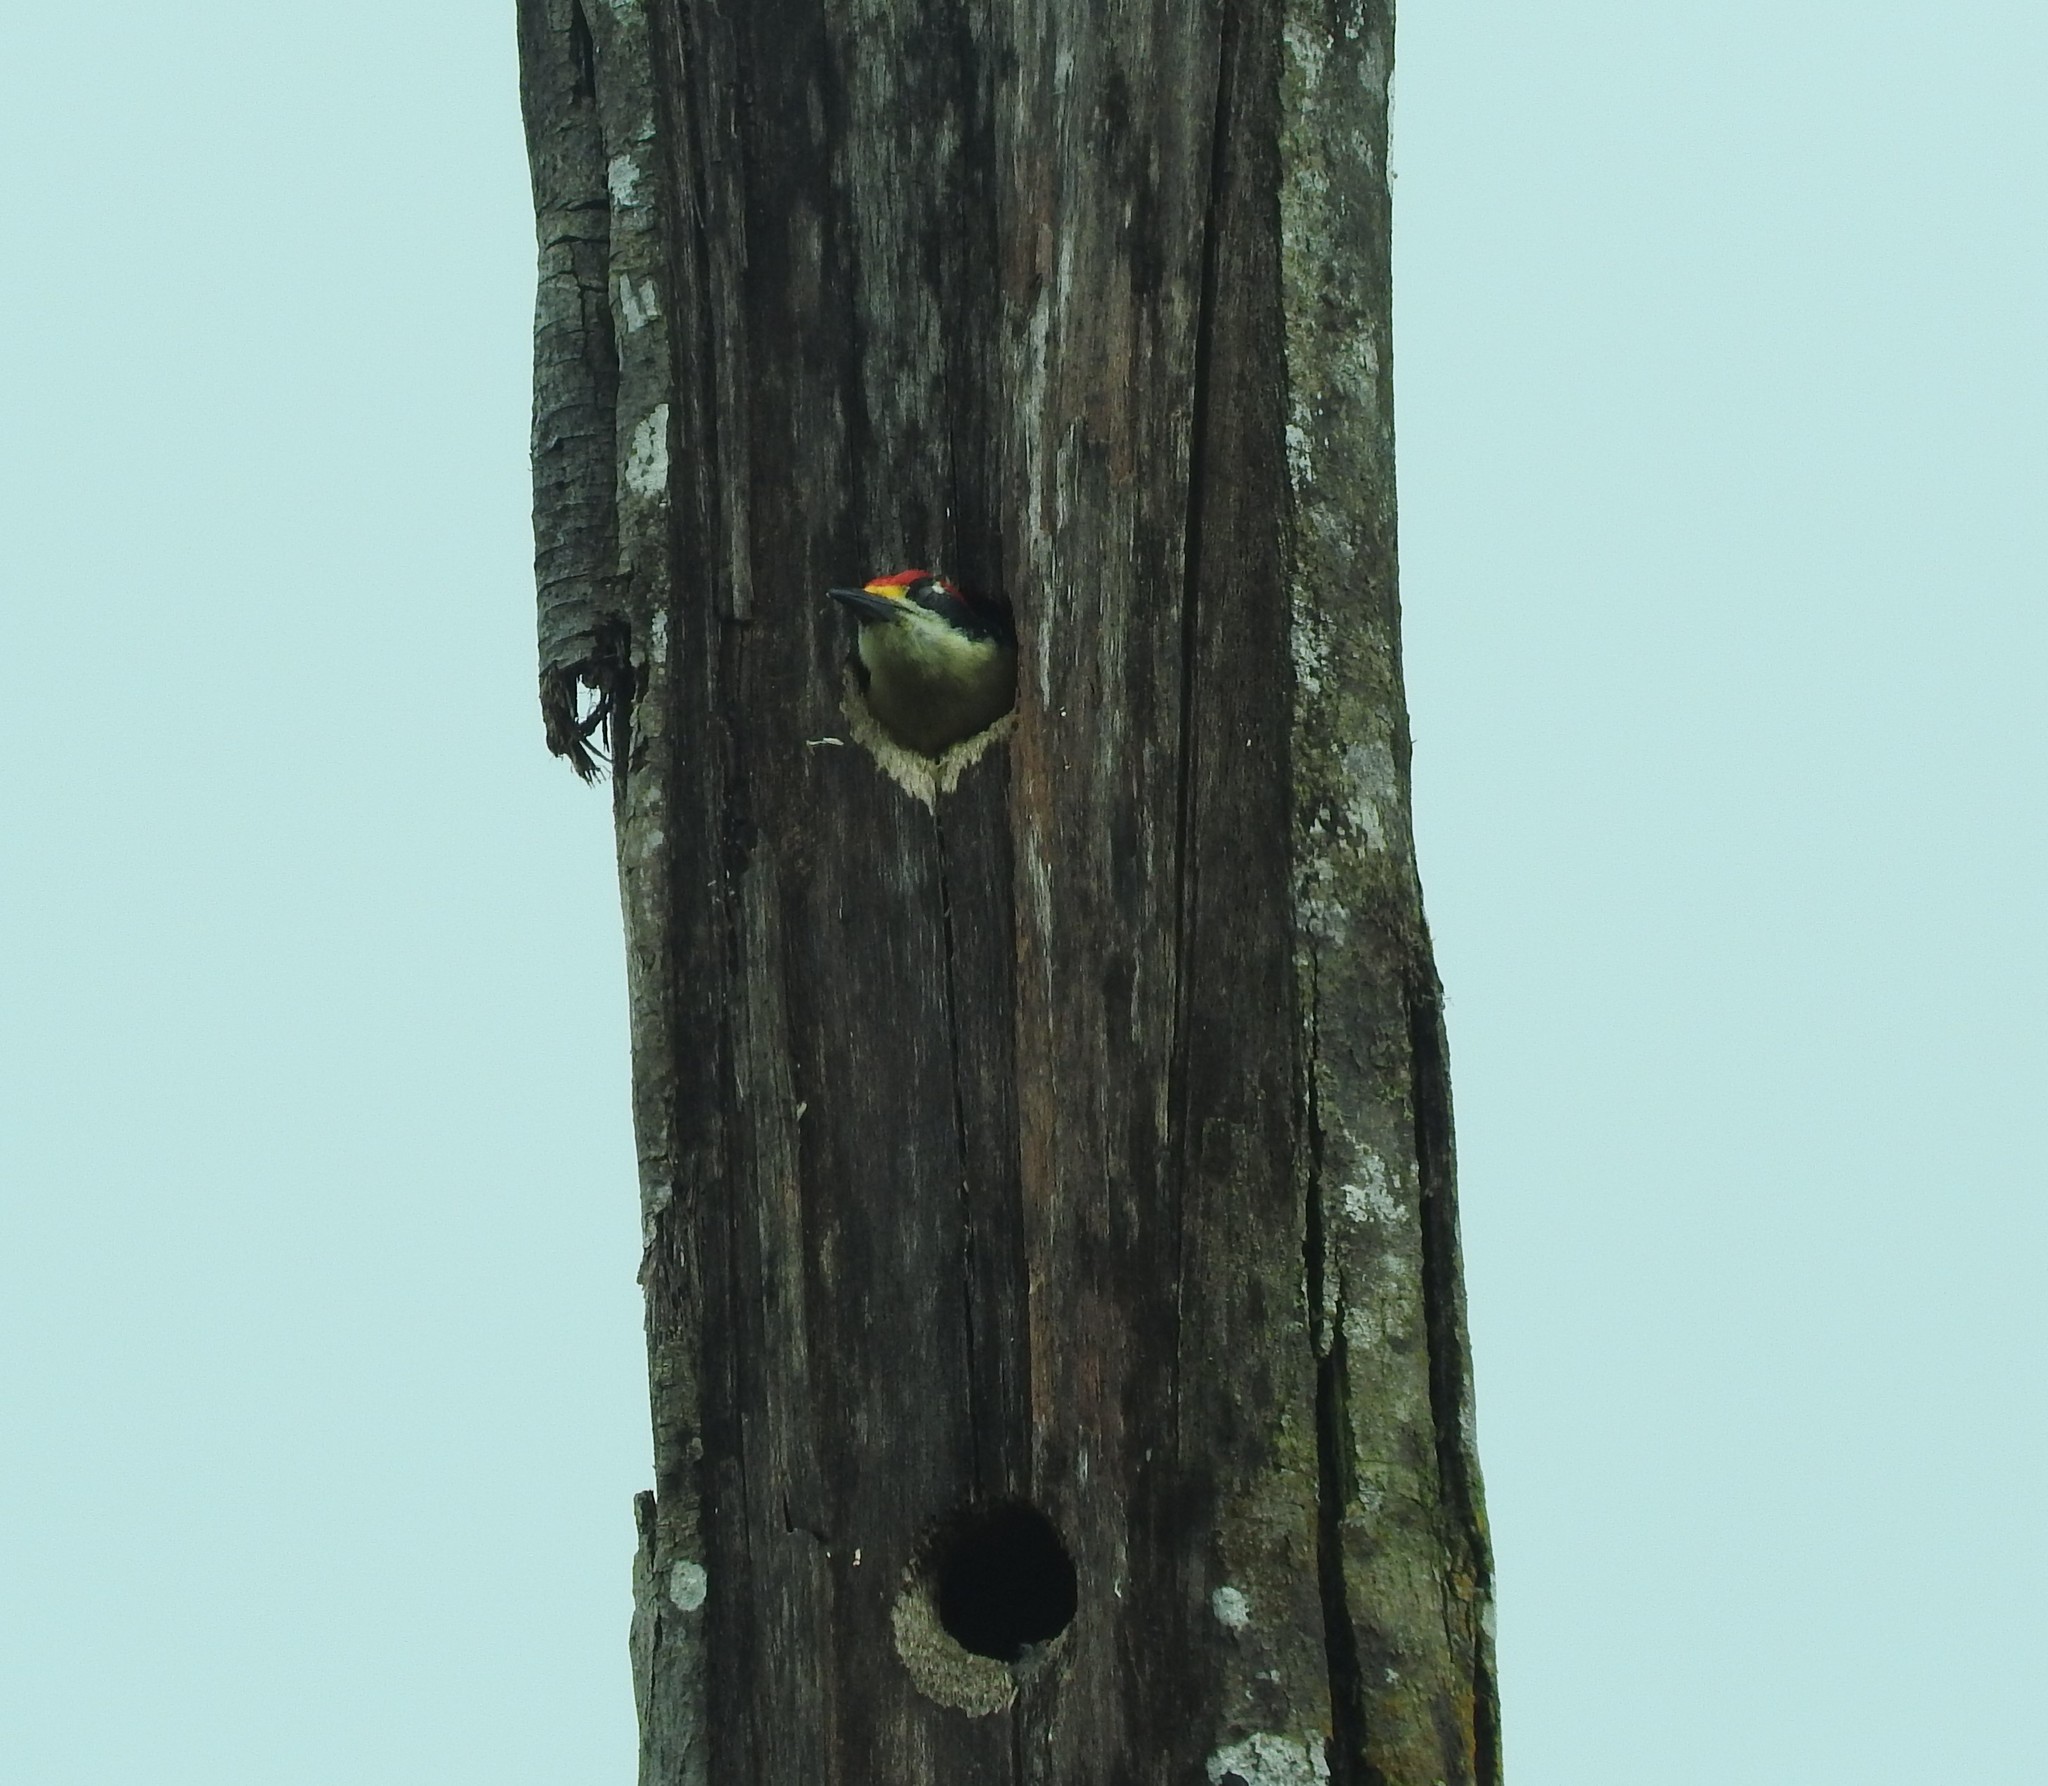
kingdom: Animalia
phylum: Chordata
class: Aves
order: Piciformes
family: Picidae
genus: Melanerpes
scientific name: Melanerpes pucherani
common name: Black-cheeked woodpecker
